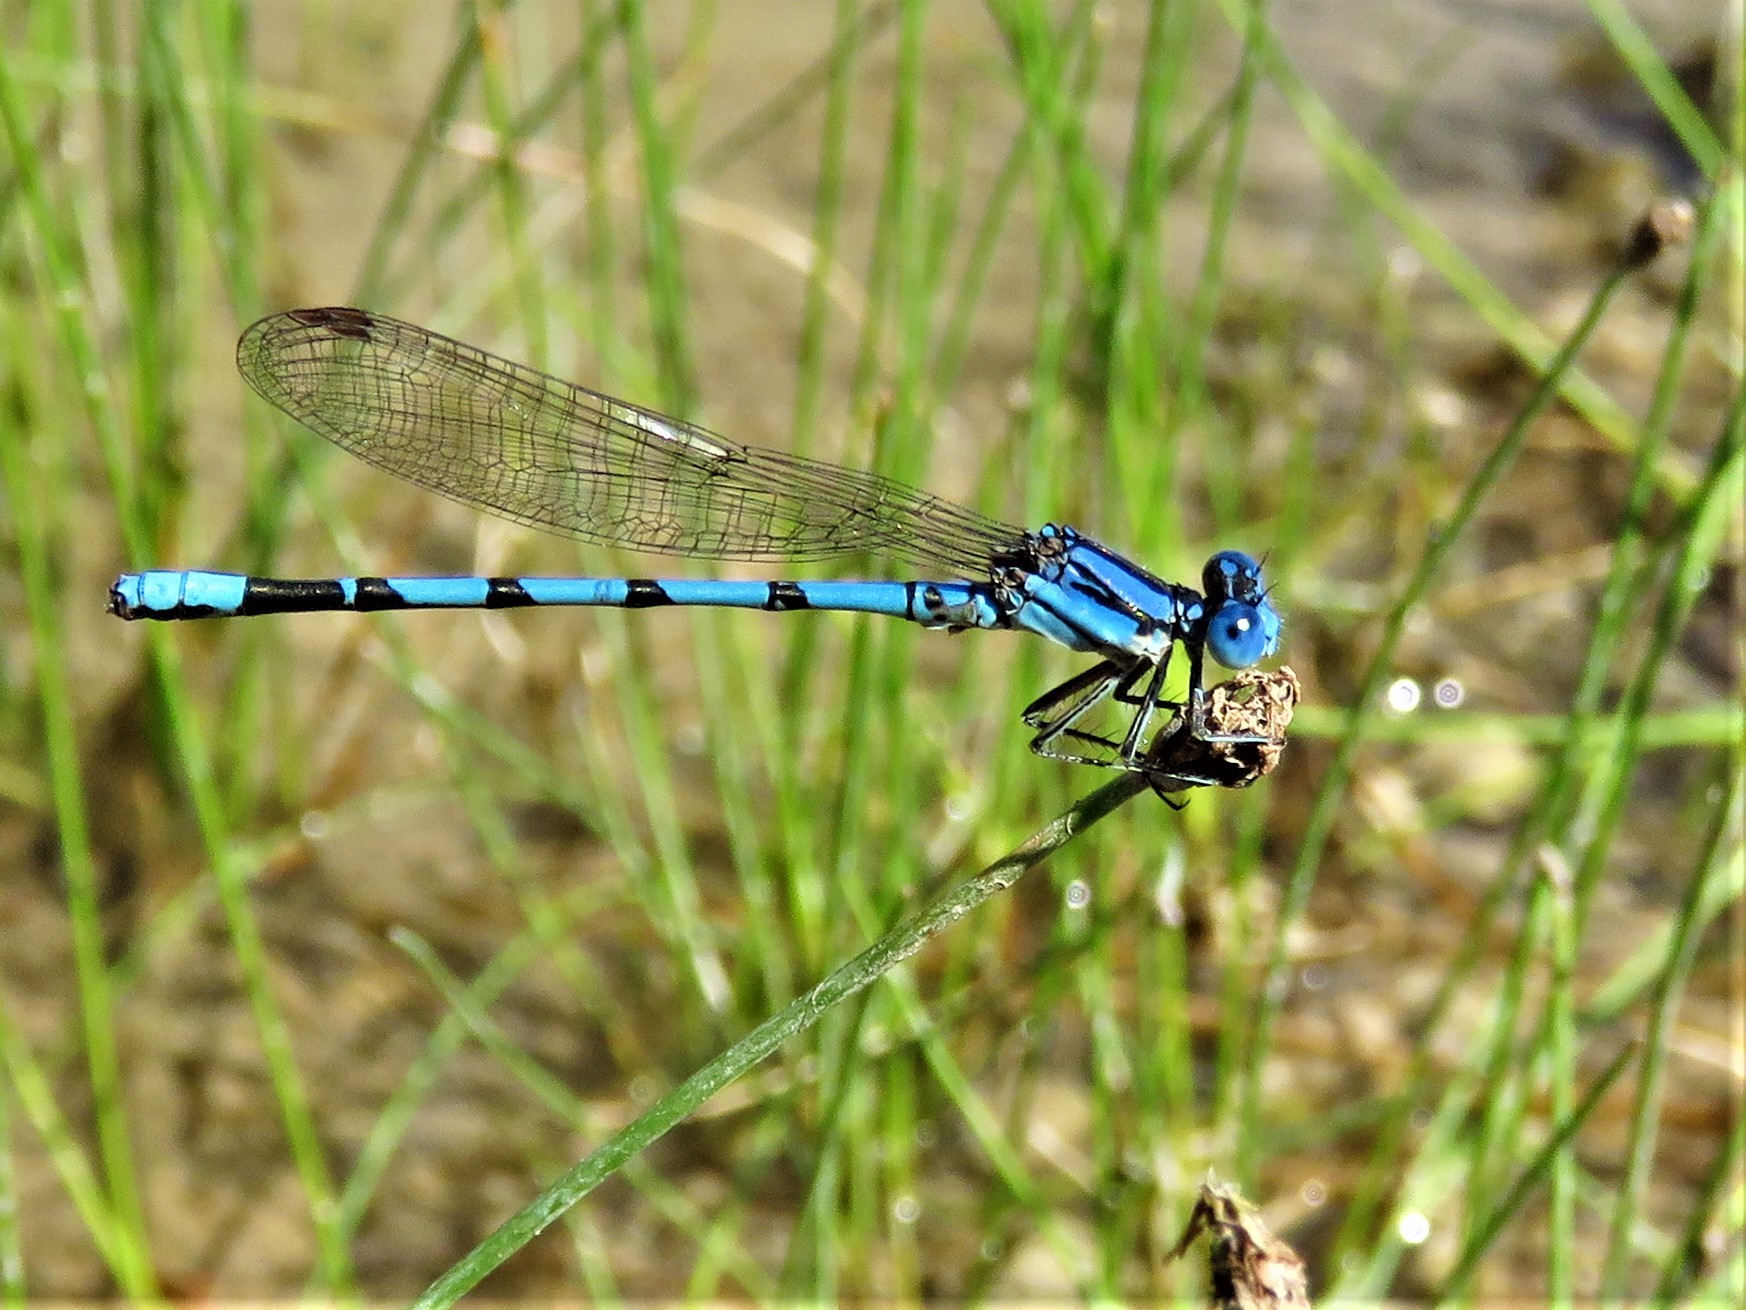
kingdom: Animalia
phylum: Arthropoda
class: Insecta
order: Odonata
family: Coenagrionidae
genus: Argia
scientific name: Argia nahuana
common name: Aztec dancer
